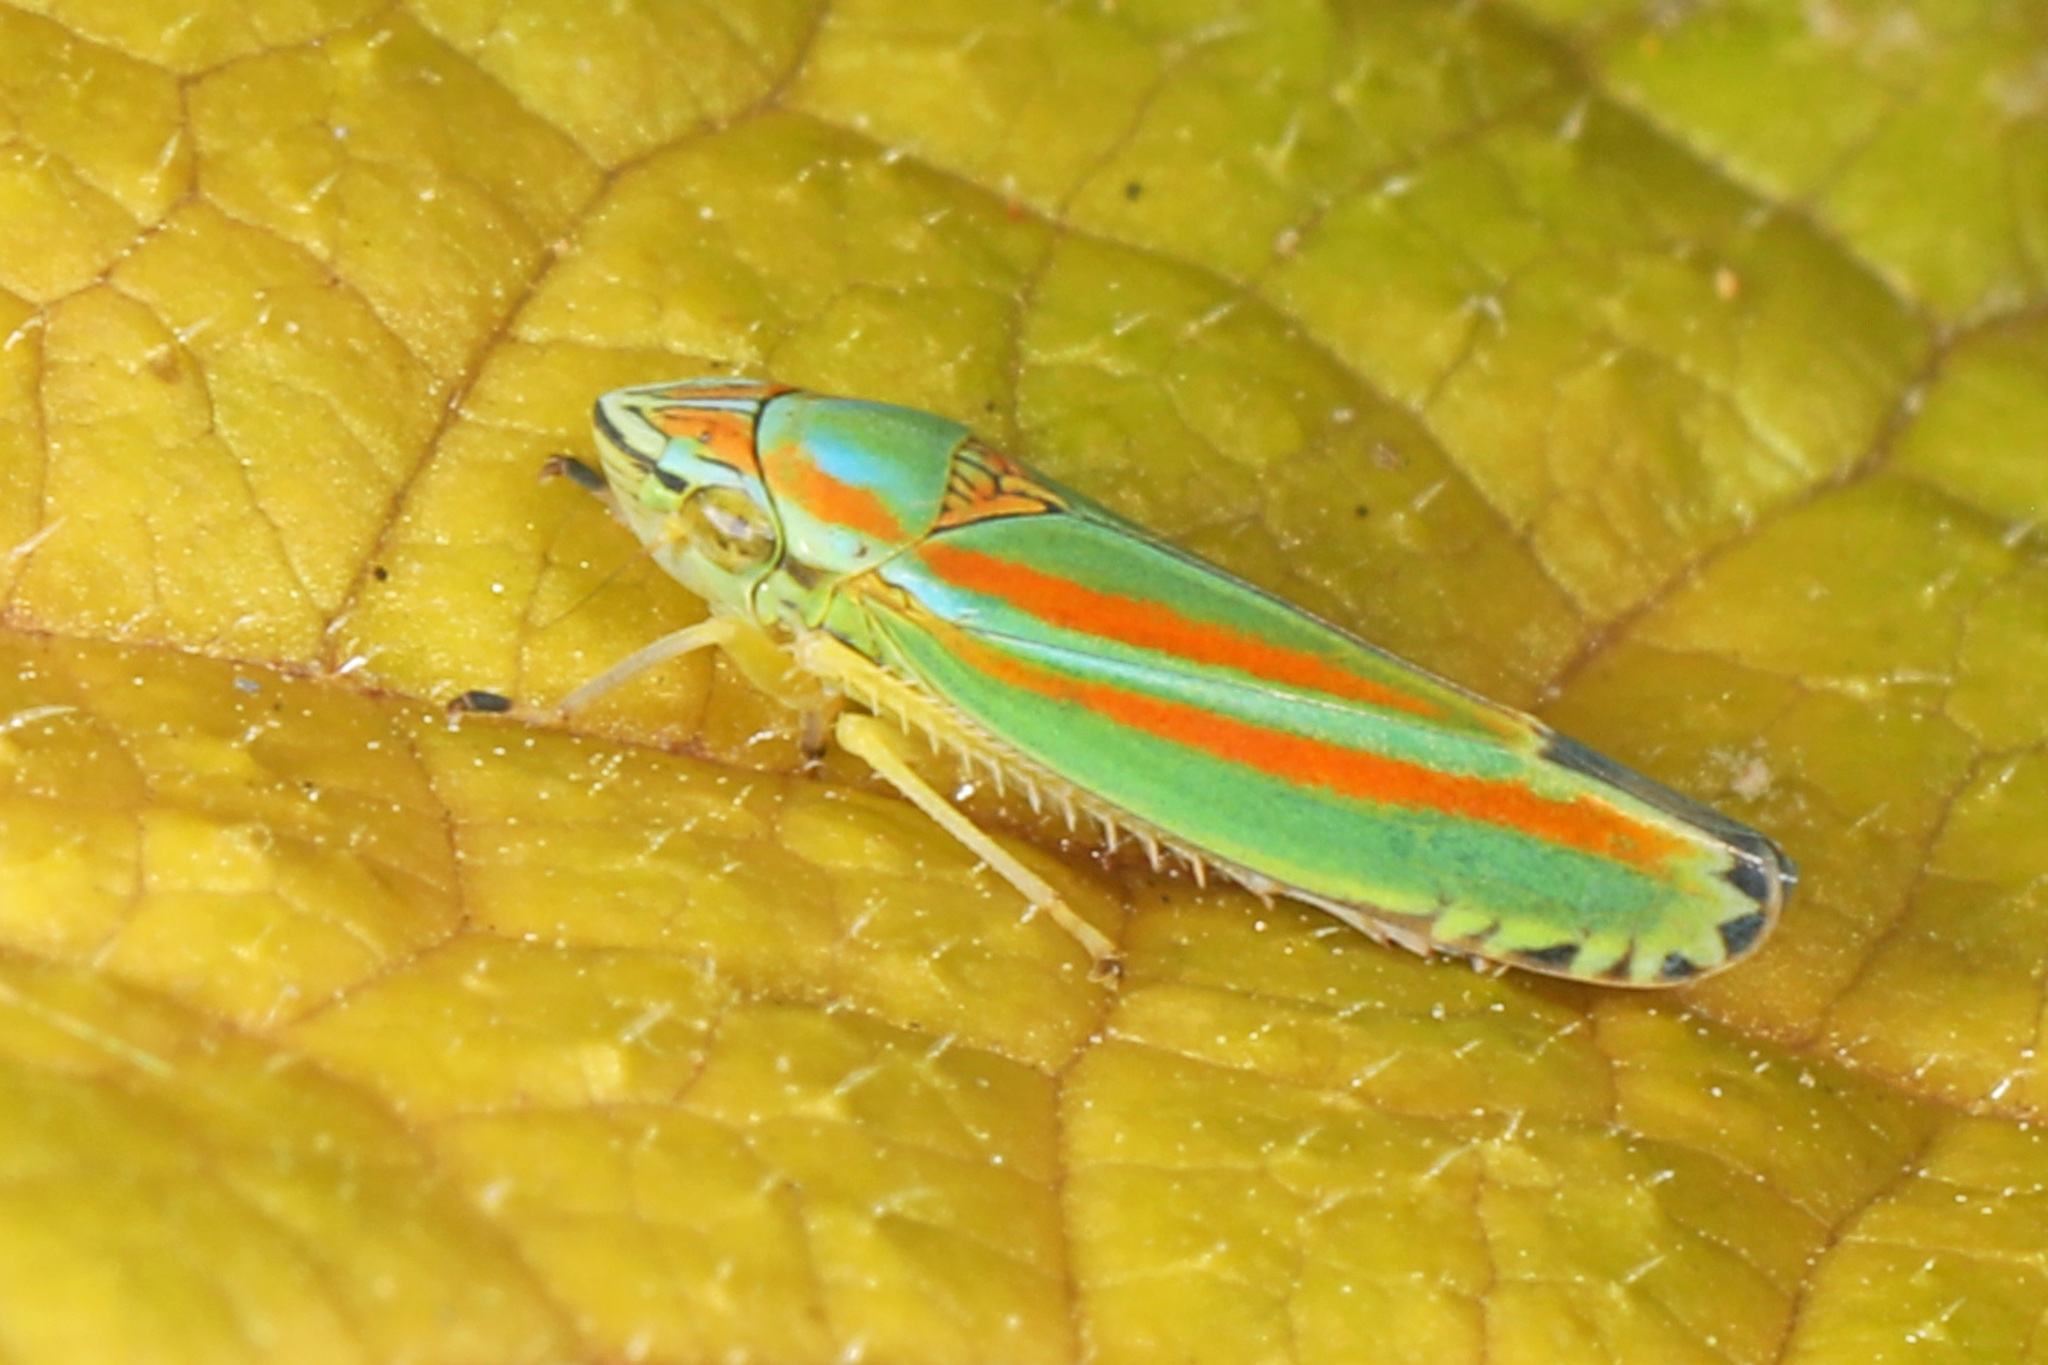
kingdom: Animalia
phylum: Arthropoda
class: Insecta
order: Hemiptera
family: Cicadellidae
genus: Graphocephala
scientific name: Graphocephala versuta
